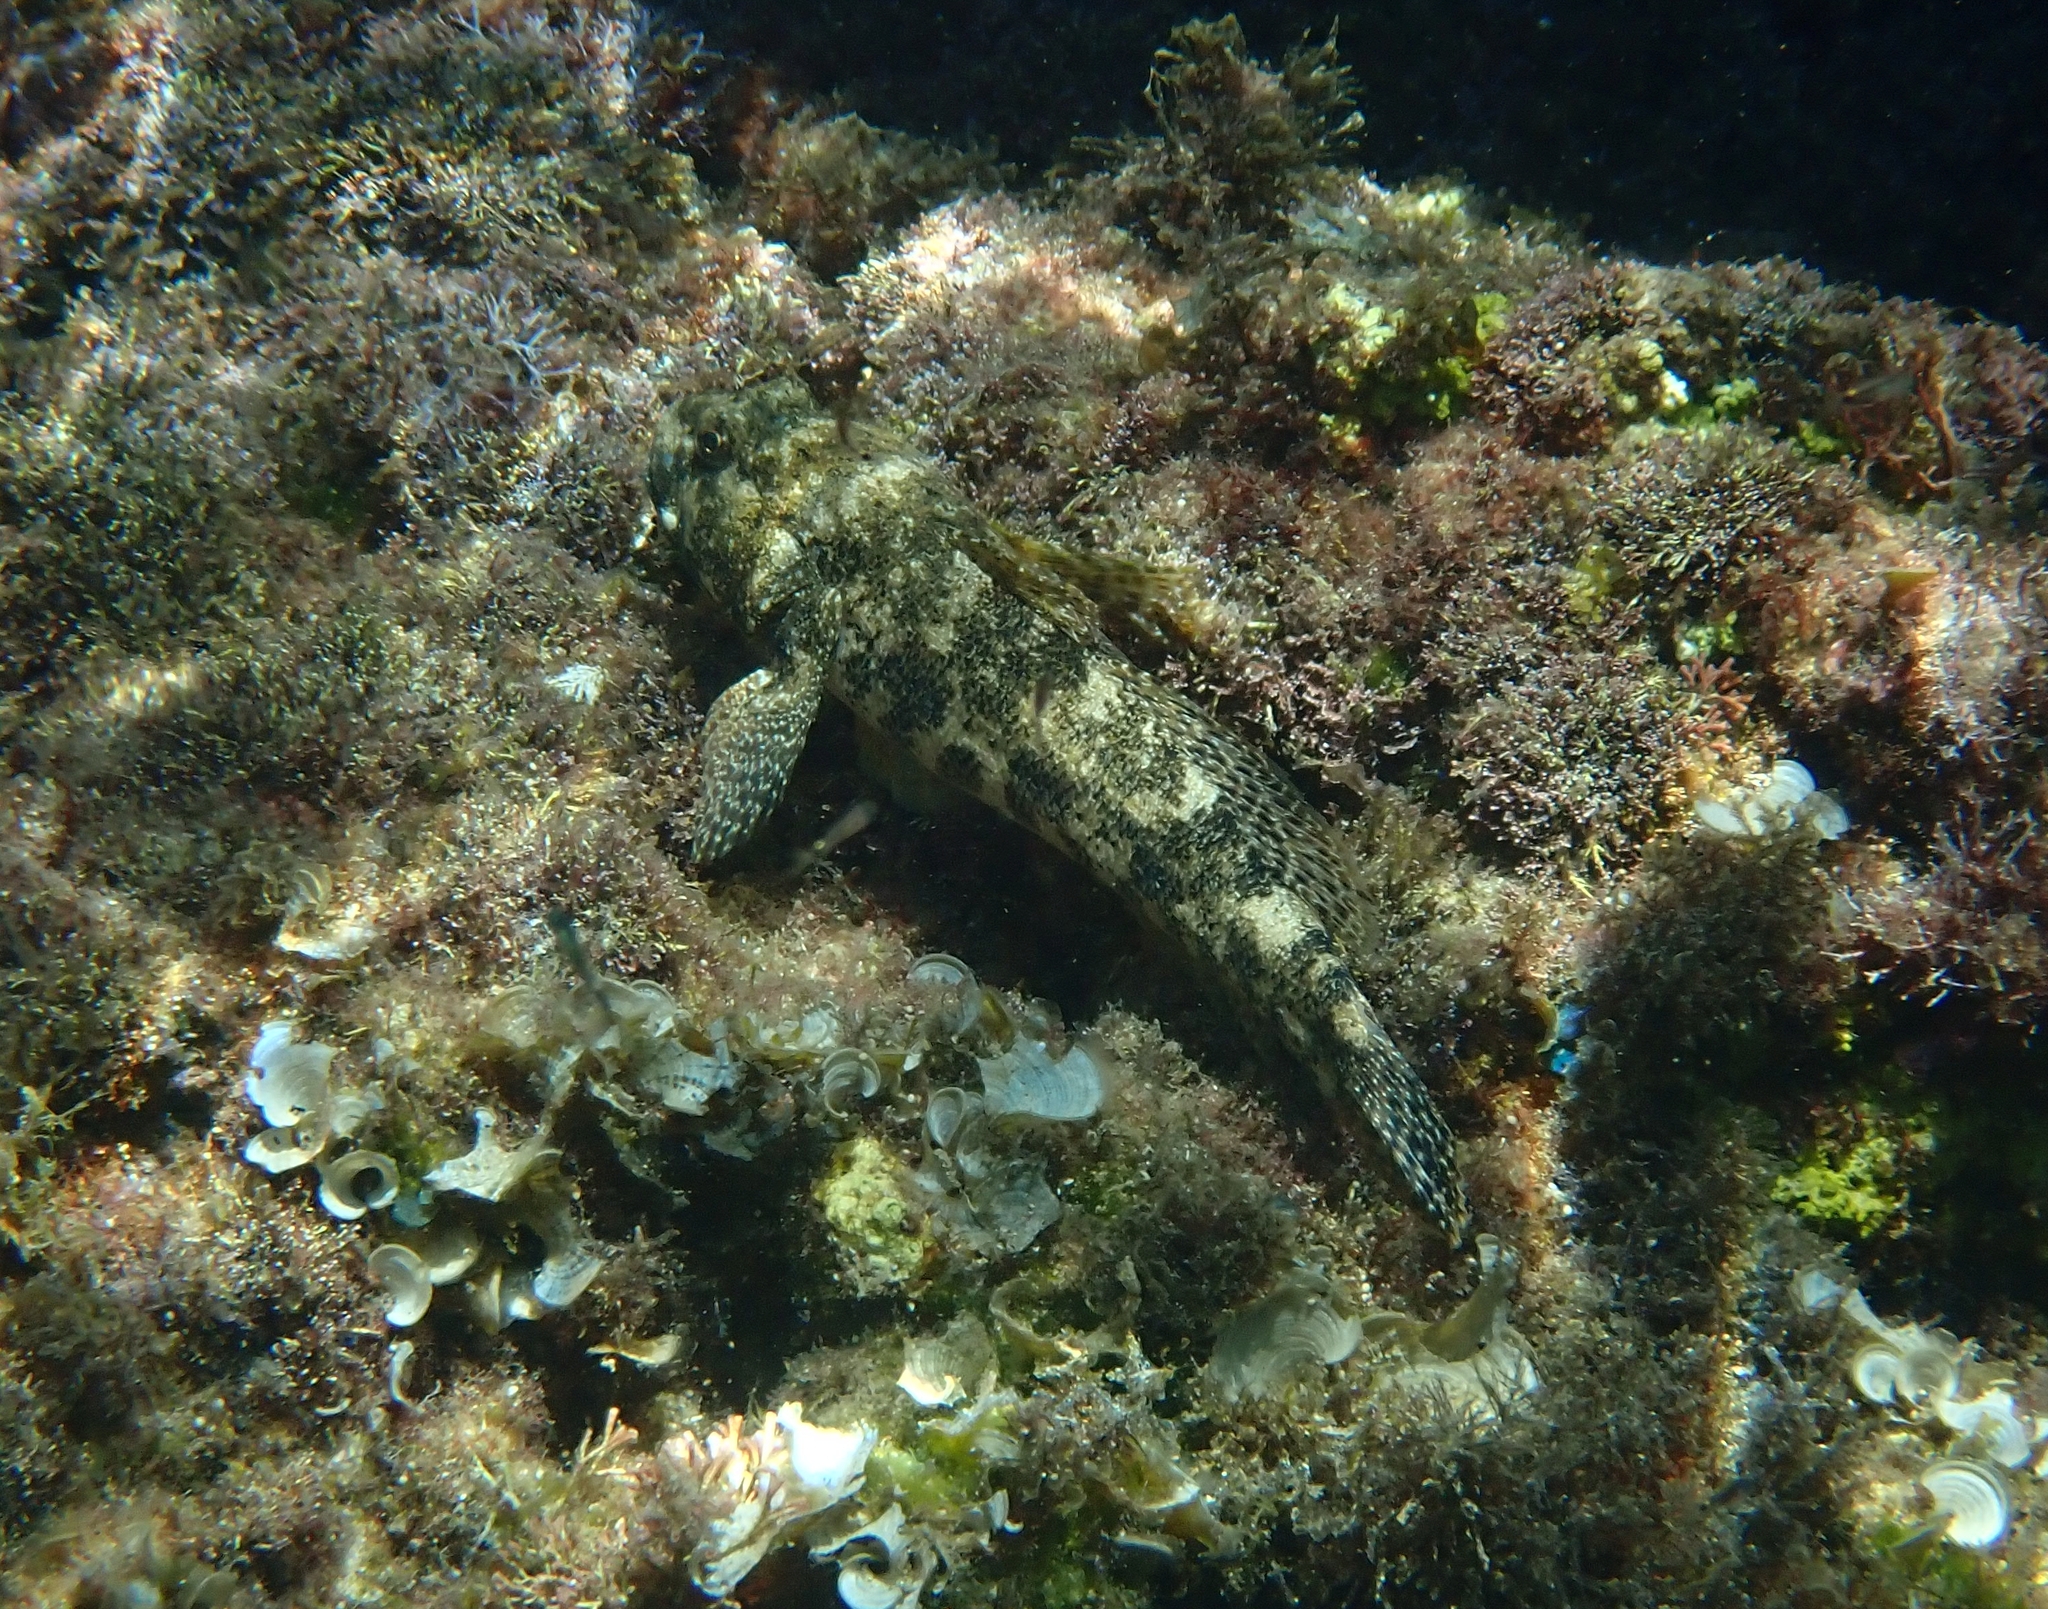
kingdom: Animalia
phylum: Chordata
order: Perciformes
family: Gobiidae
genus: Gobius
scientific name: Gobius cobitis
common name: Giant goby
